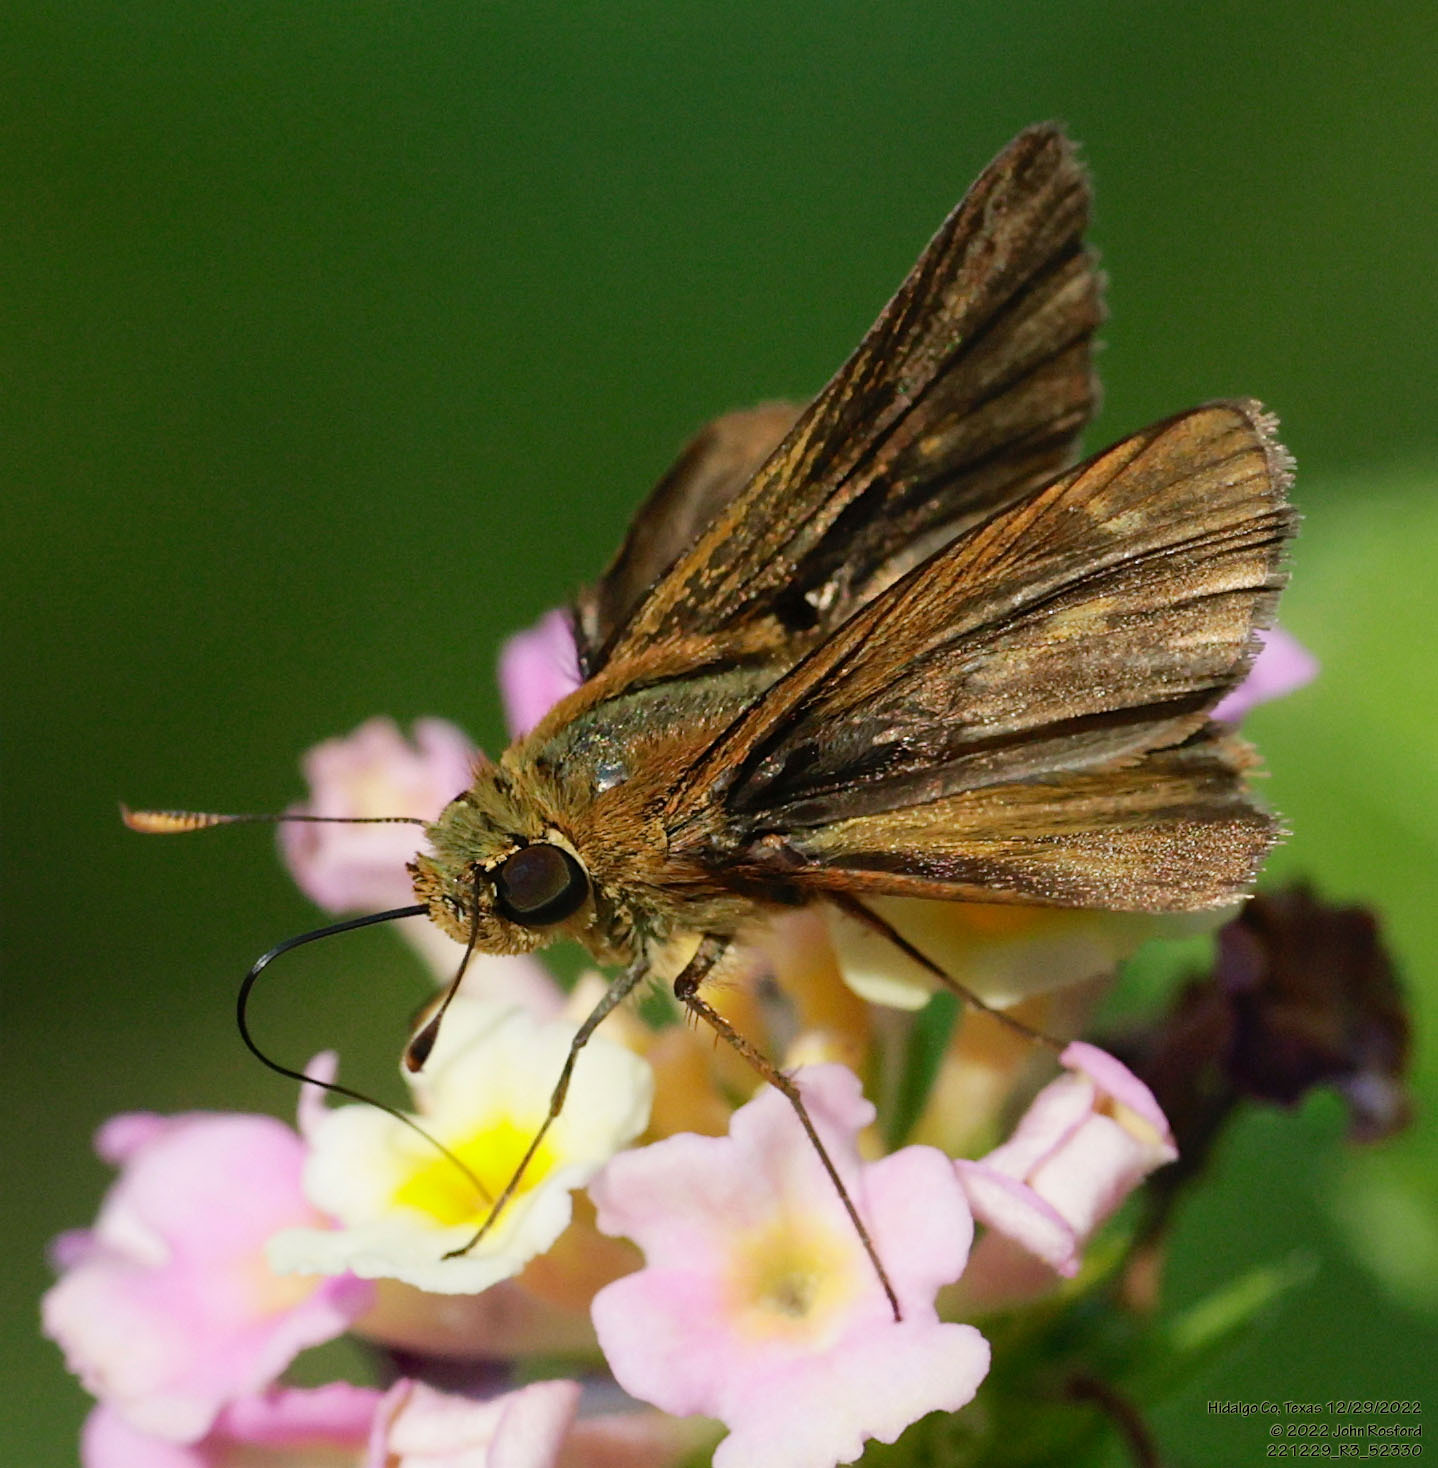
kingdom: Animalia
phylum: Arthropoda
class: Insecta
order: Lepidoptera
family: Hesperiidae
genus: Polites
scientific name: Polites otho
